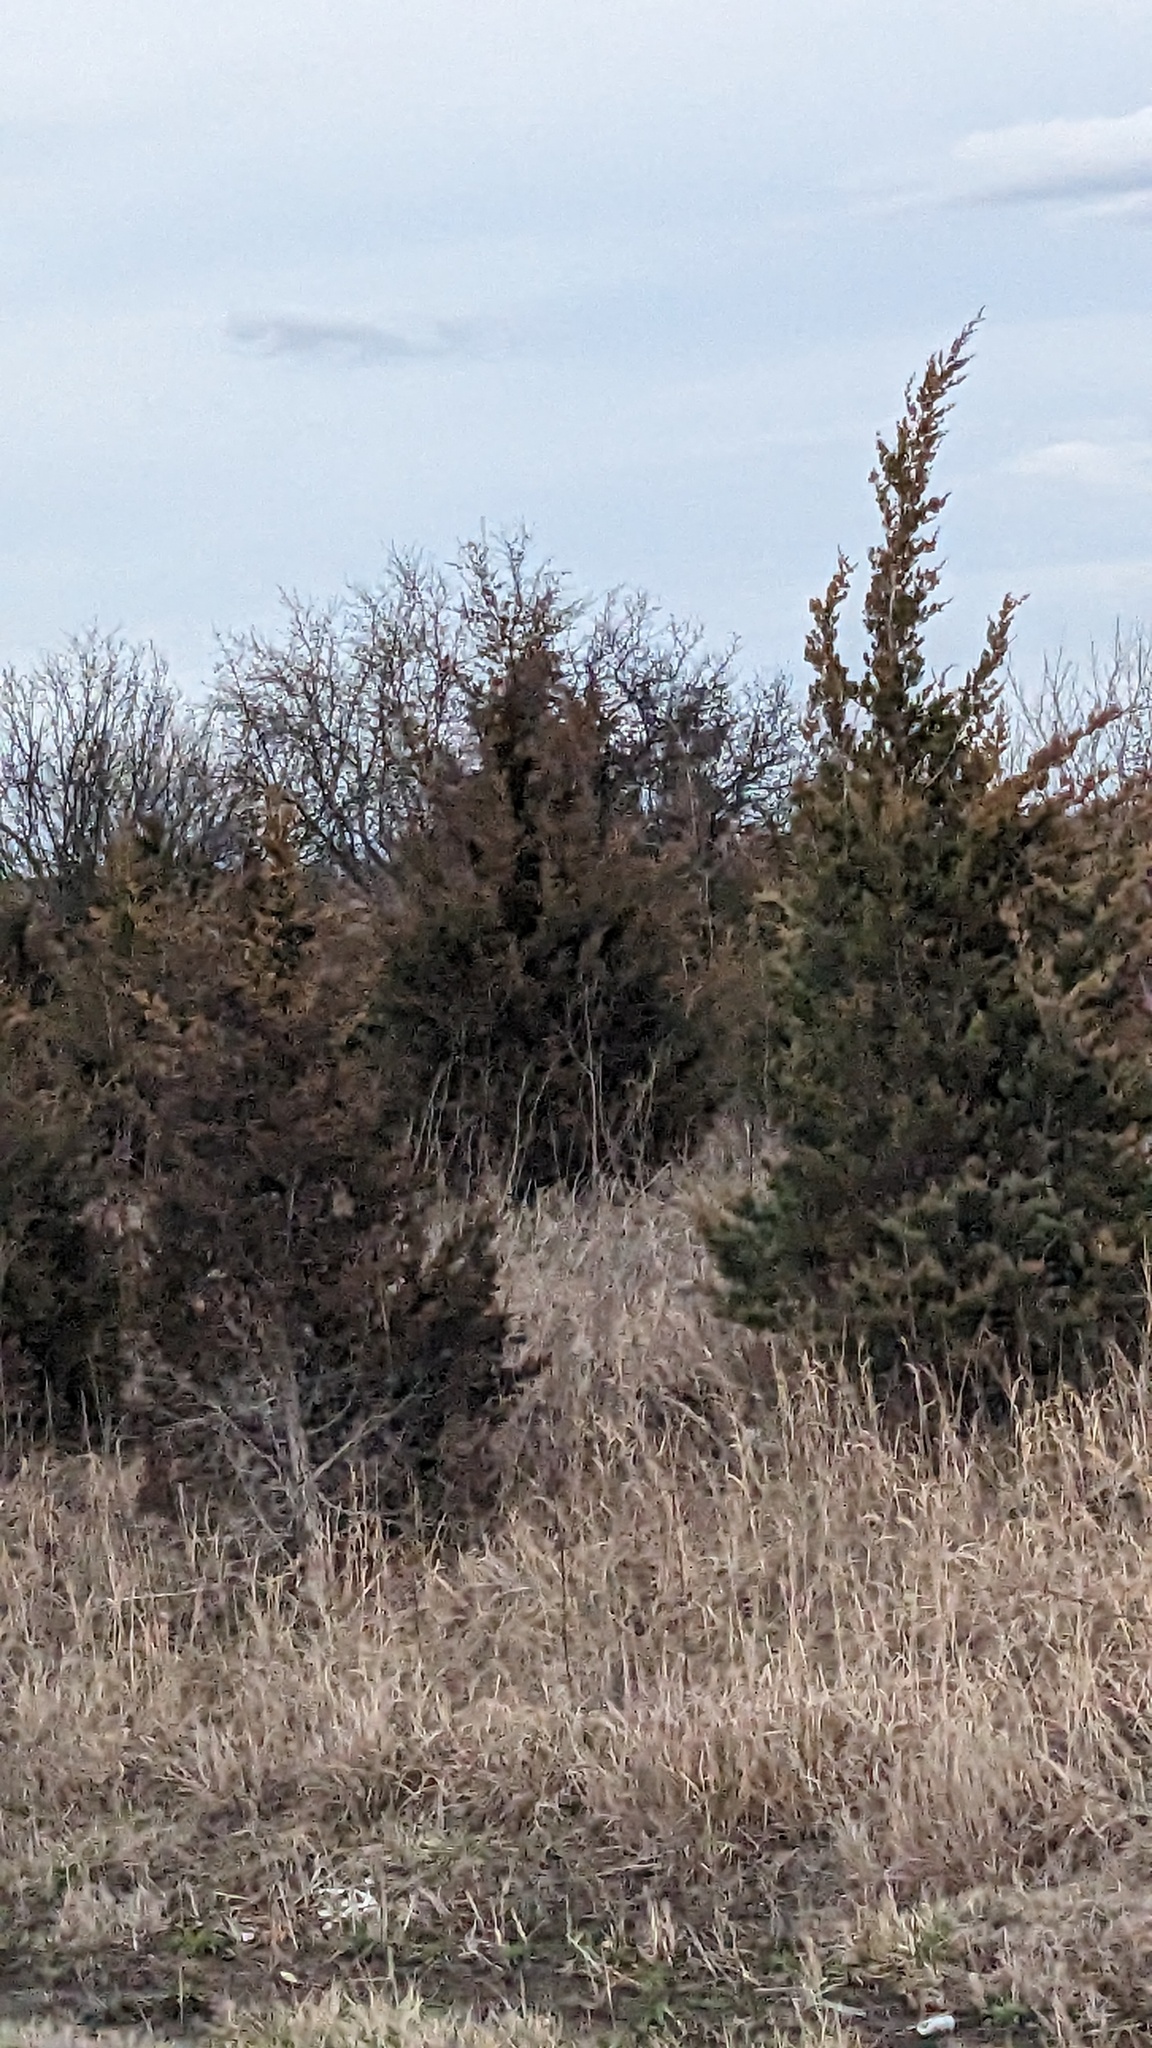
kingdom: Plantae
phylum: Tracheophyta
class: Pinopsida
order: Pinales
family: Cupressaceae
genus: Juniperus
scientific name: Juniperus virginiana
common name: Red juniper
